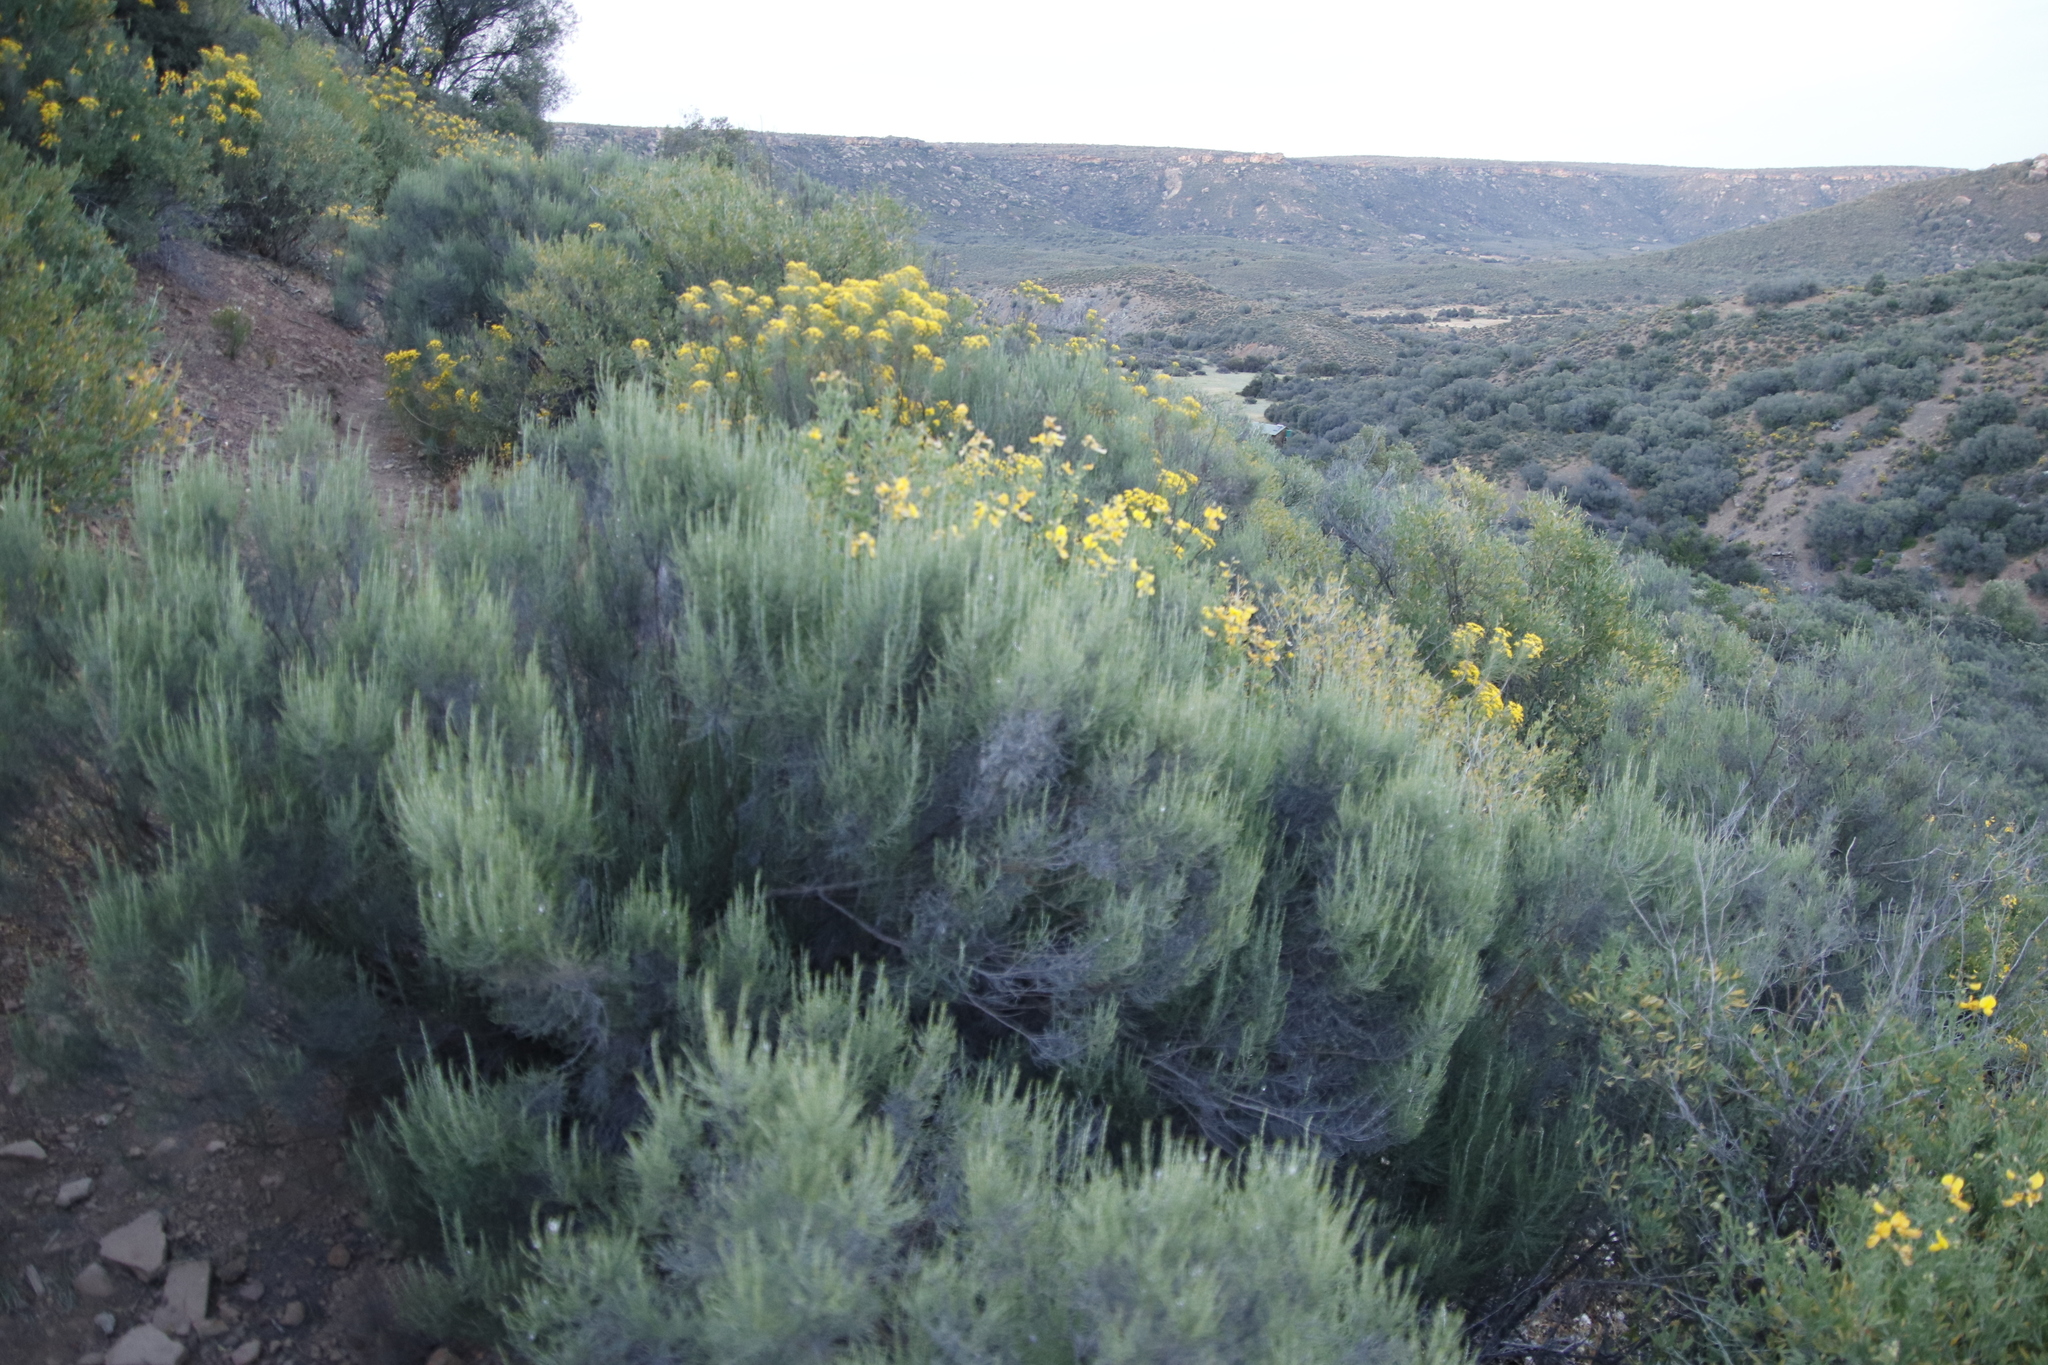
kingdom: Plantae
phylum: Tracheophyta
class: Magnoliopsida
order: Asterales
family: Asteraceae
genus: Dicerothamnus
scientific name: Dicerothamnus rhinocerotis
